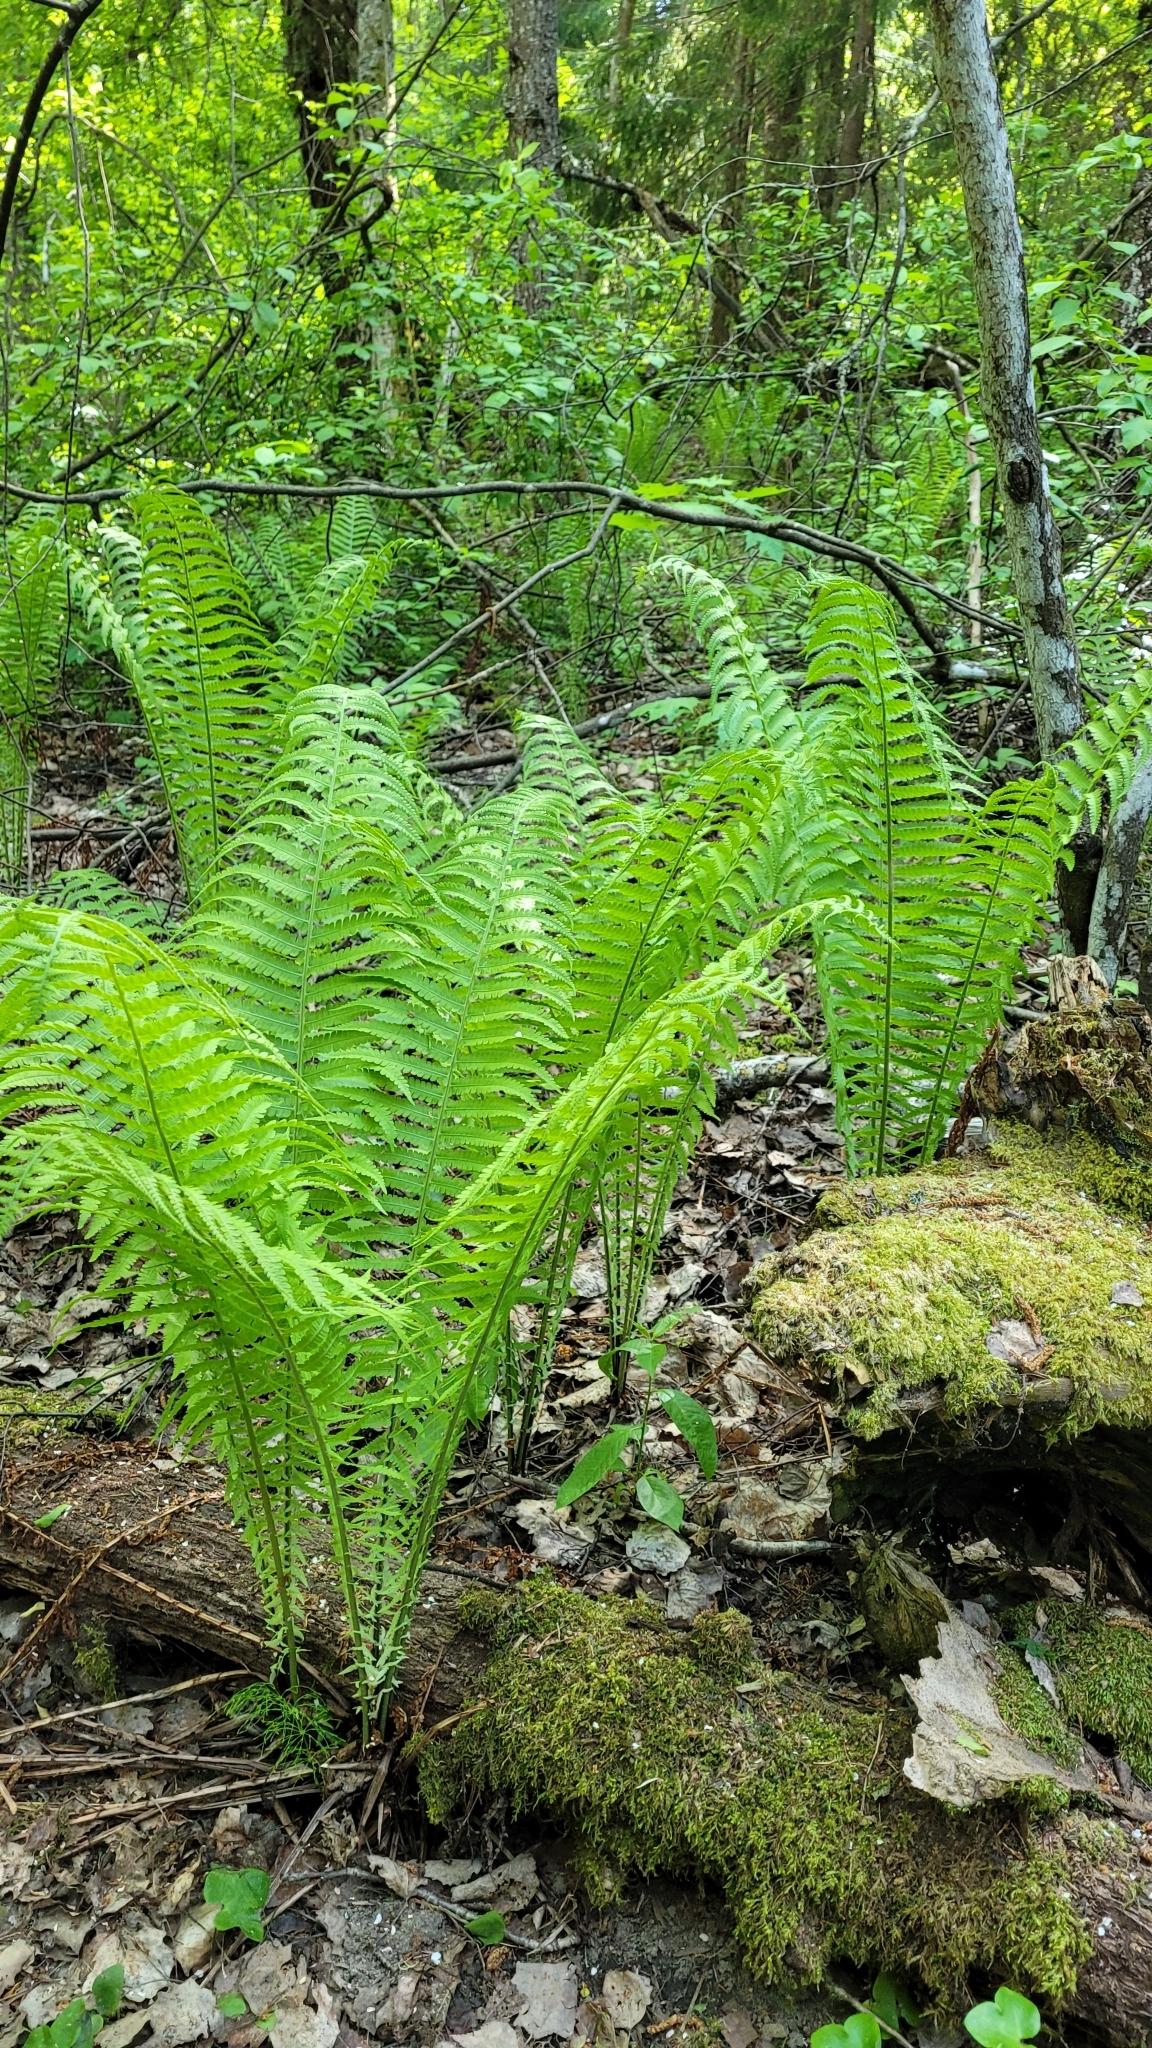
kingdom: Plantae
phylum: Tracheophyta
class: Polypodiopsida
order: Polypodiales
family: Onocleaceae
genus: Matteuccia
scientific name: Matteuccia struthiopteris
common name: Ostrich fern
